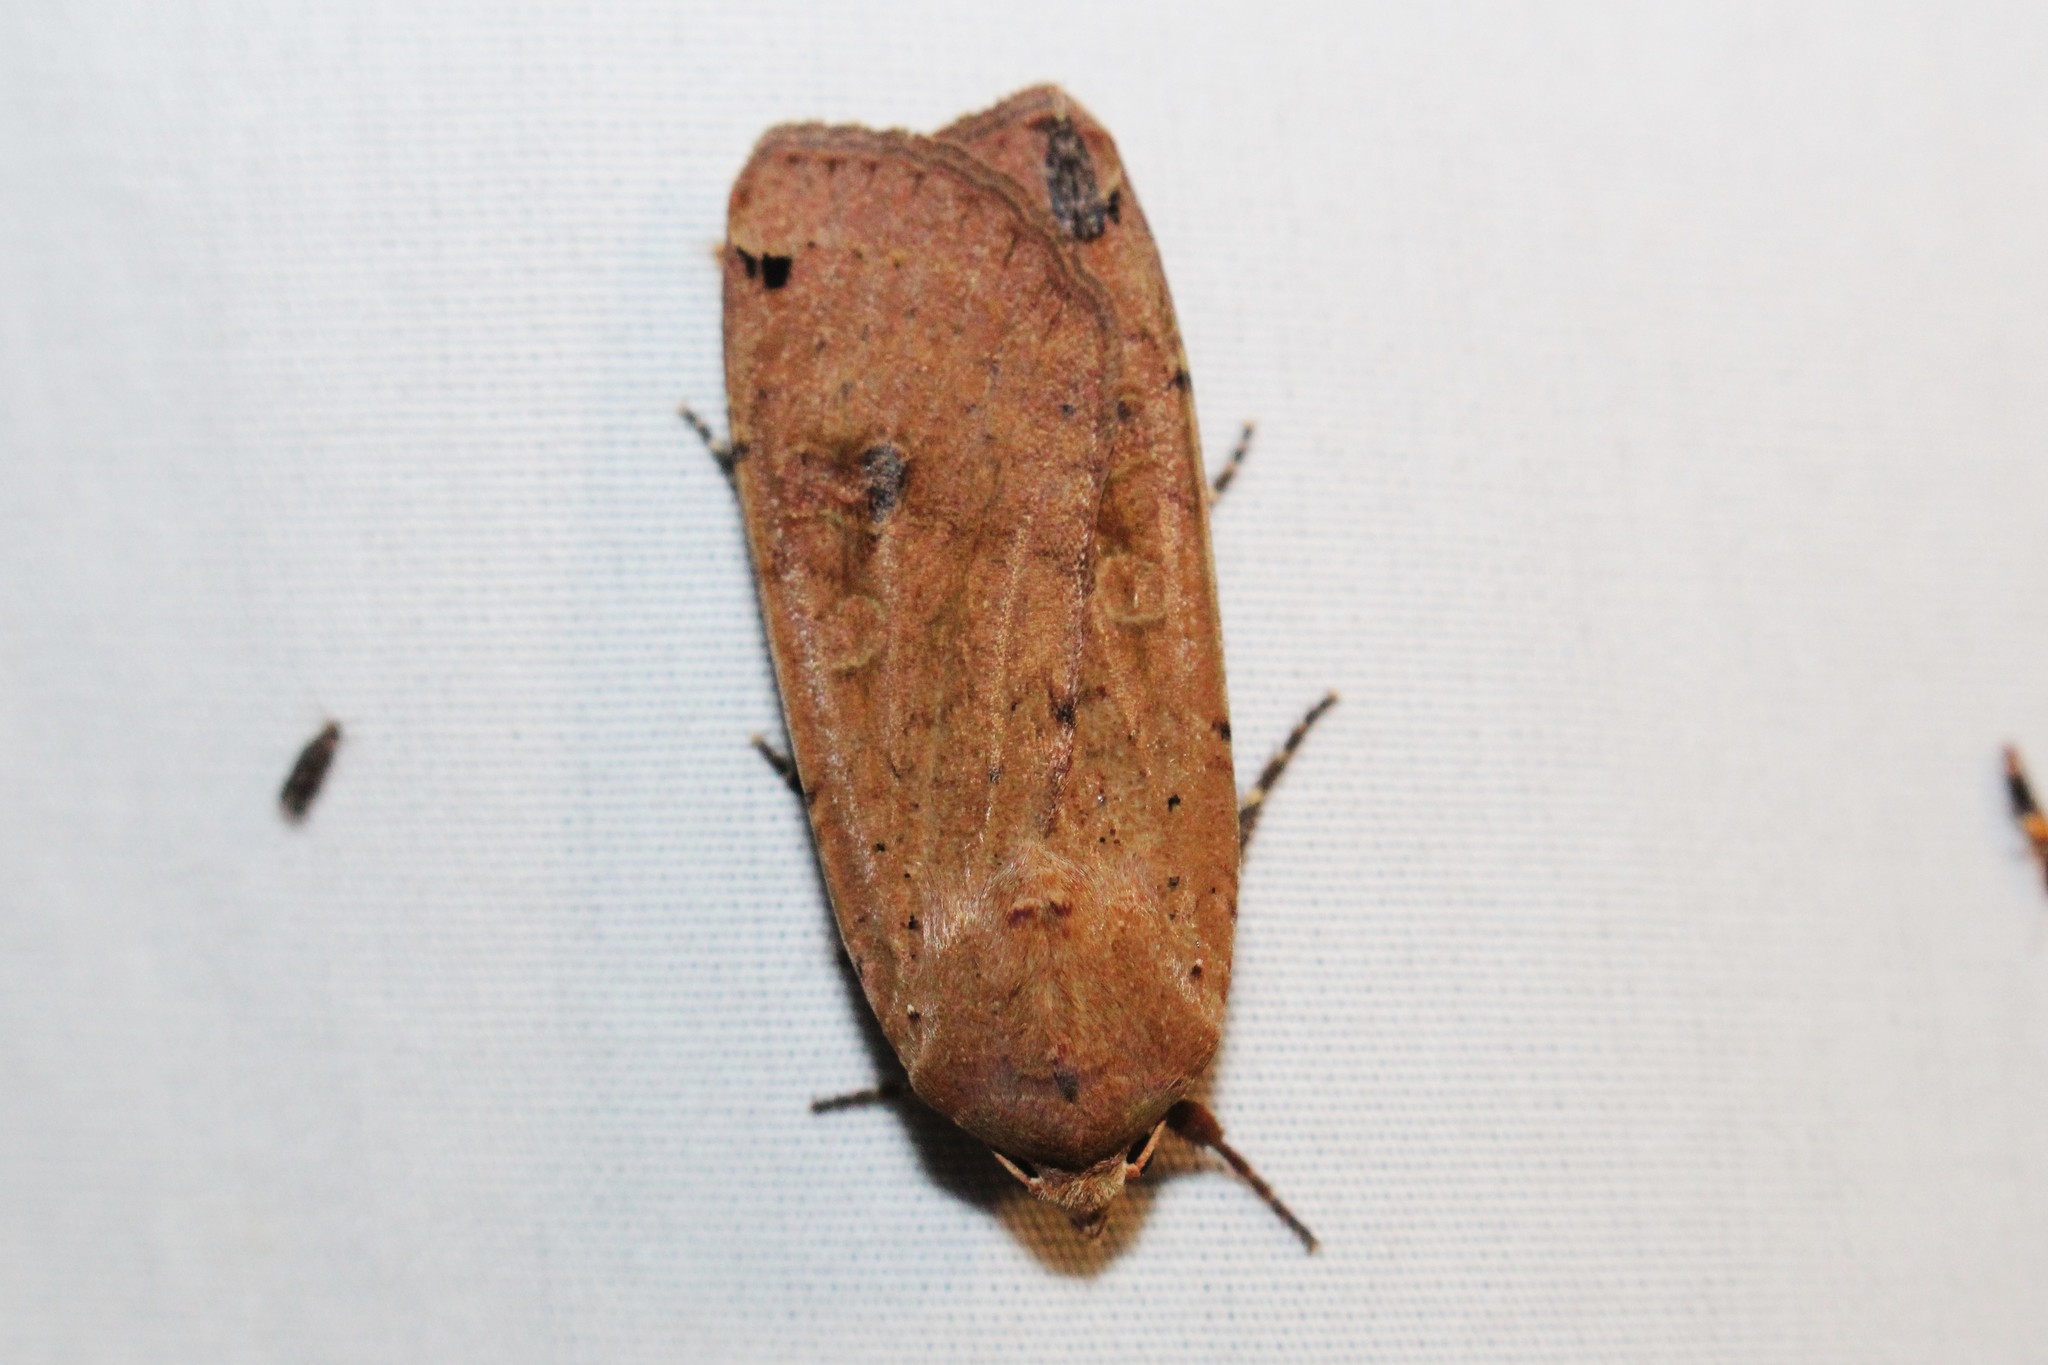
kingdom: Animalia
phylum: Arthropoda
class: Insecta
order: Lepidoptera
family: Noctuidae
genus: Noctua
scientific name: Noctua pronuba
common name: Large yellow underwing
